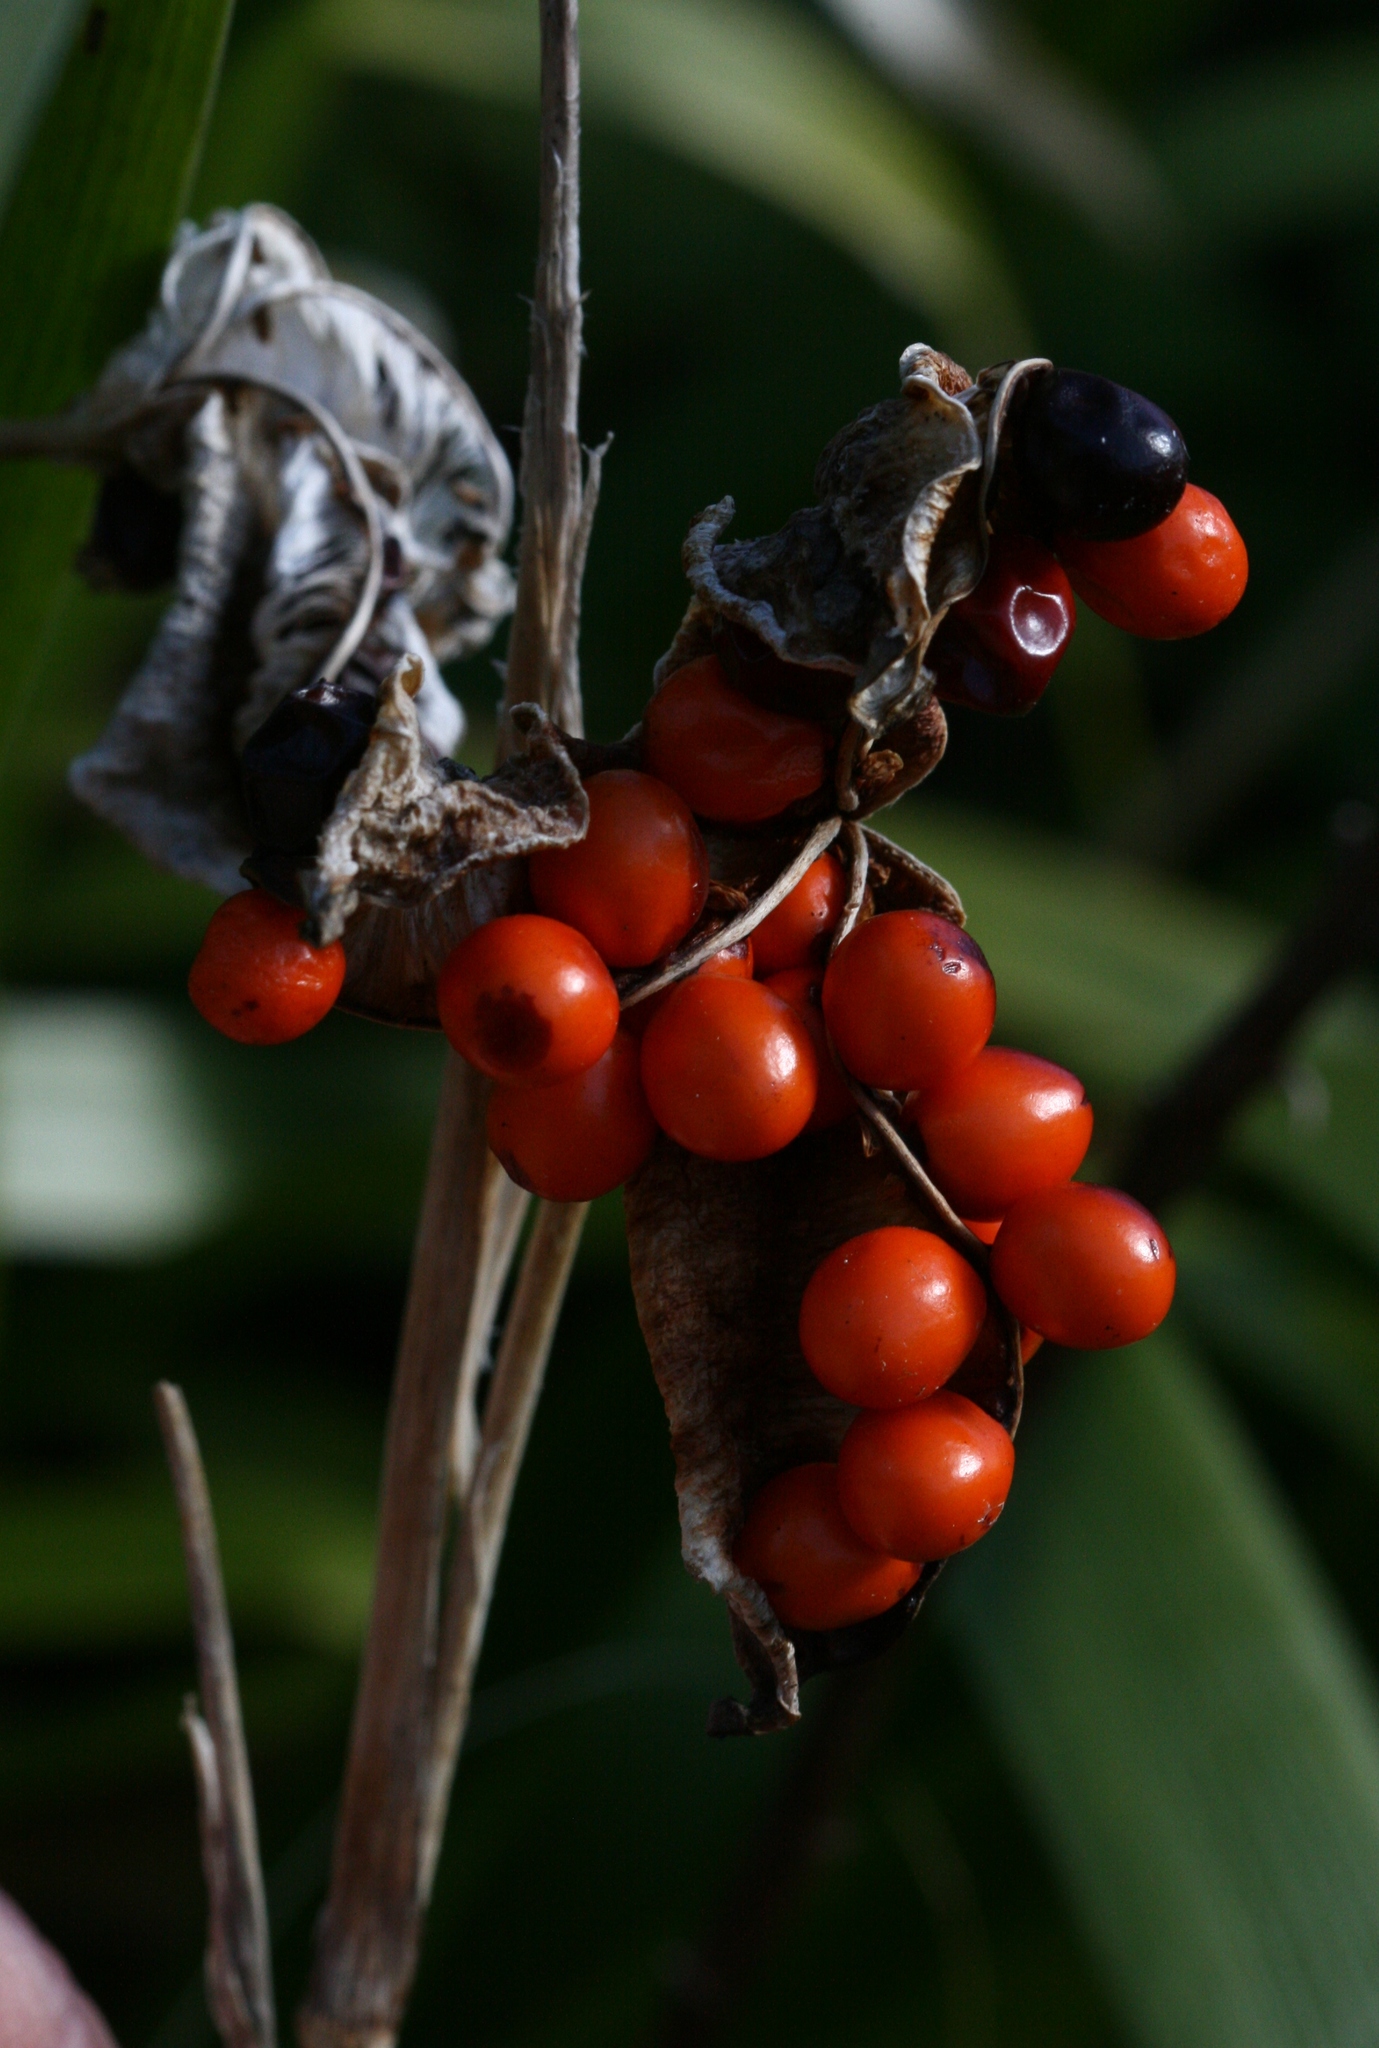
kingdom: Plantae
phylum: Tracheophyta
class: Liliopsida
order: Asparagales
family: Iridaceae
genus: Iris
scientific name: Iris foetidissima
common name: Stinking iris
